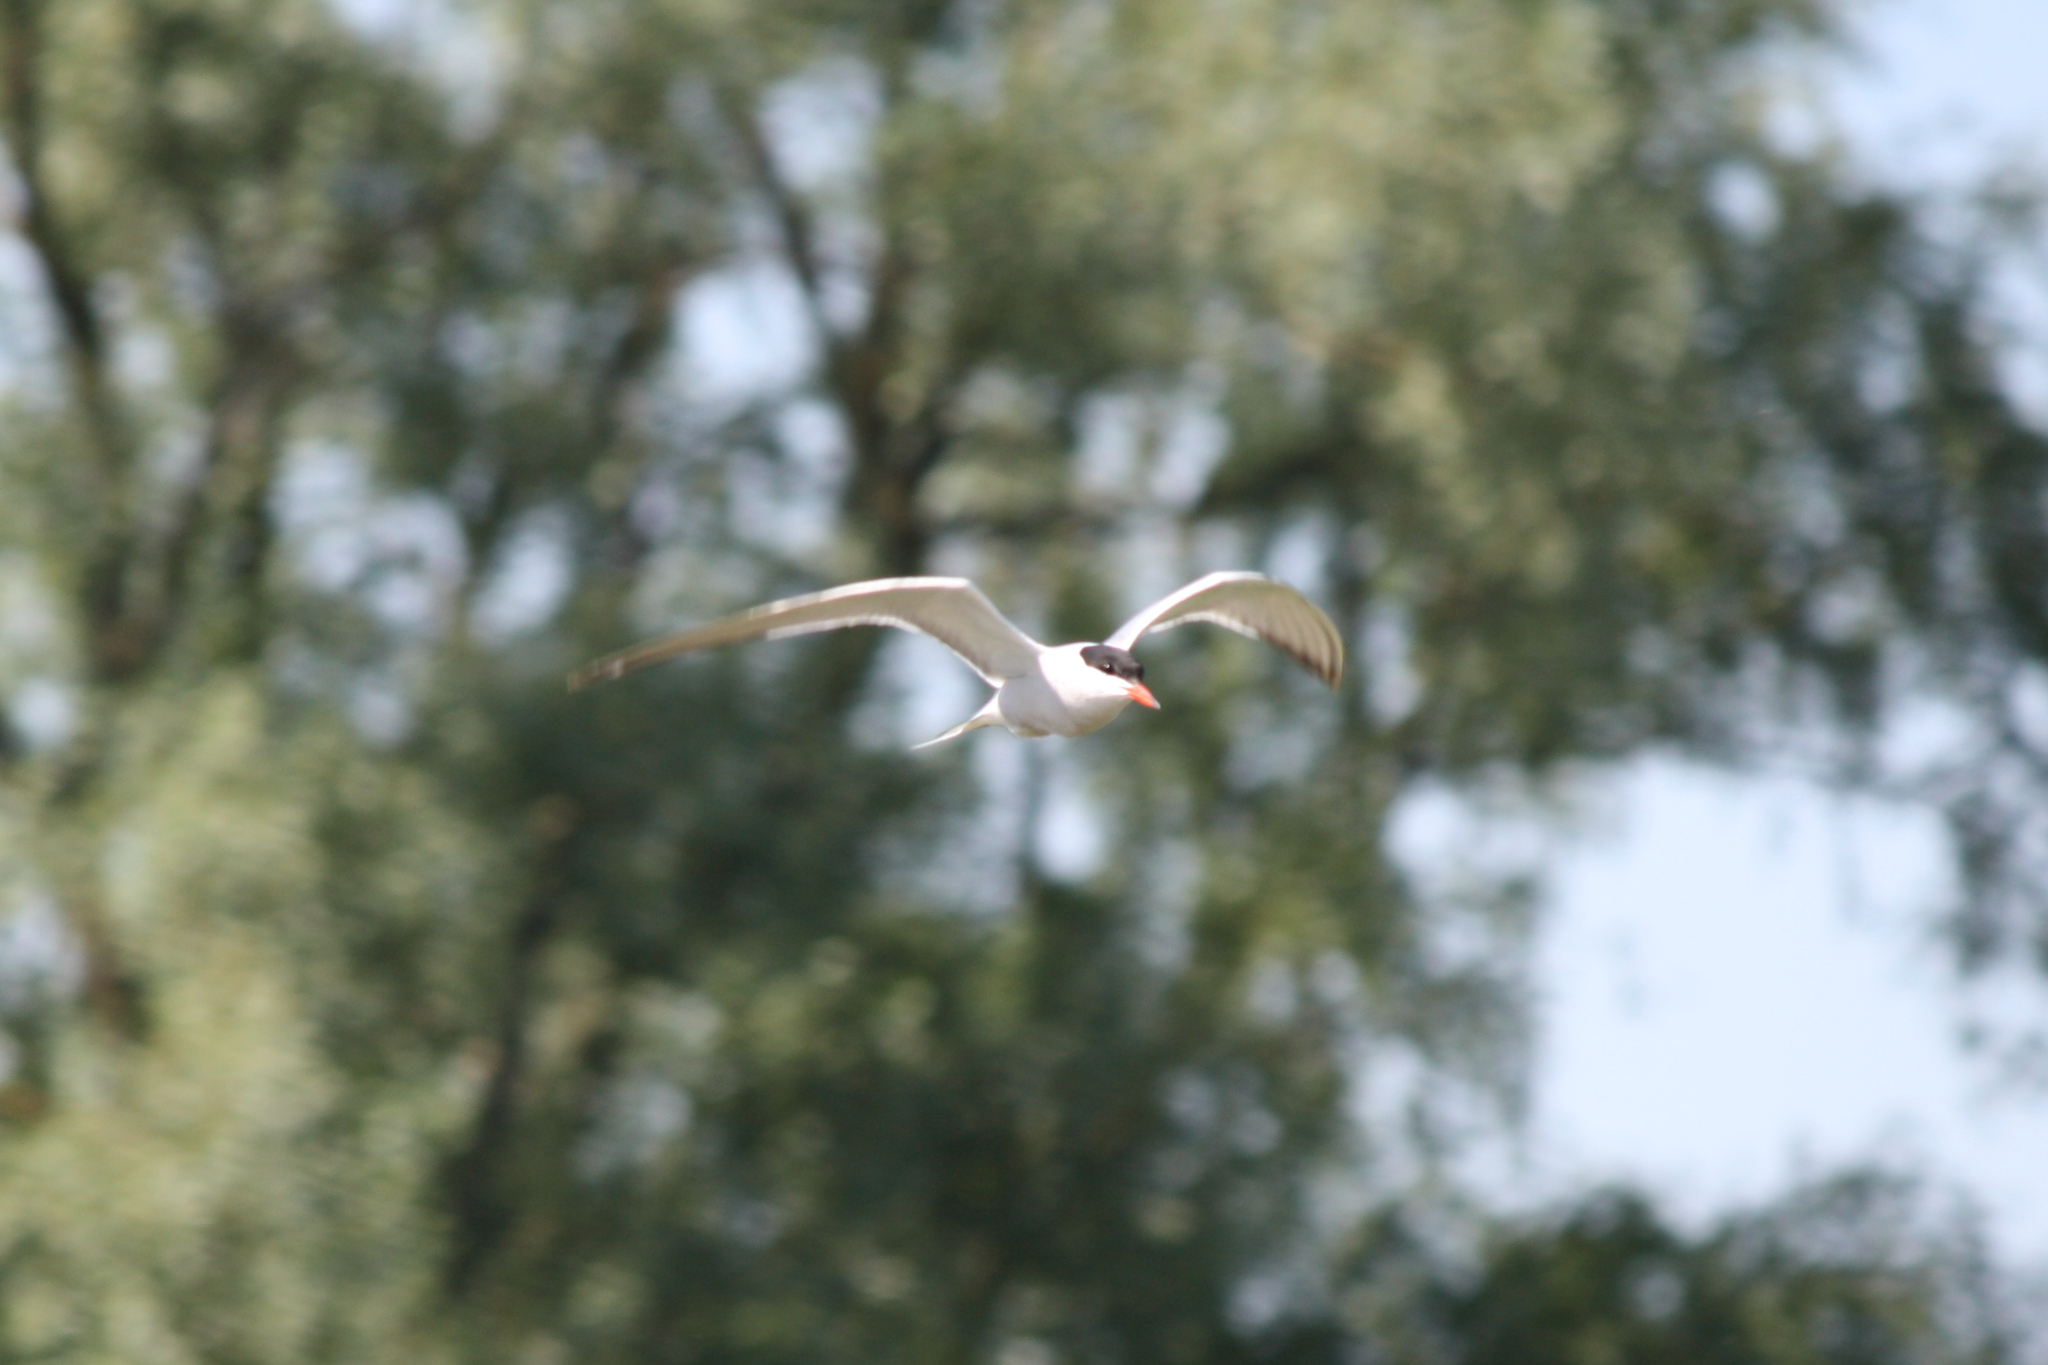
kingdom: Animalia
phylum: Chordata
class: Aves
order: Charadriiformes
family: Laridae
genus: Sterna
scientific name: Sterna hirundo
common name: Common tern
